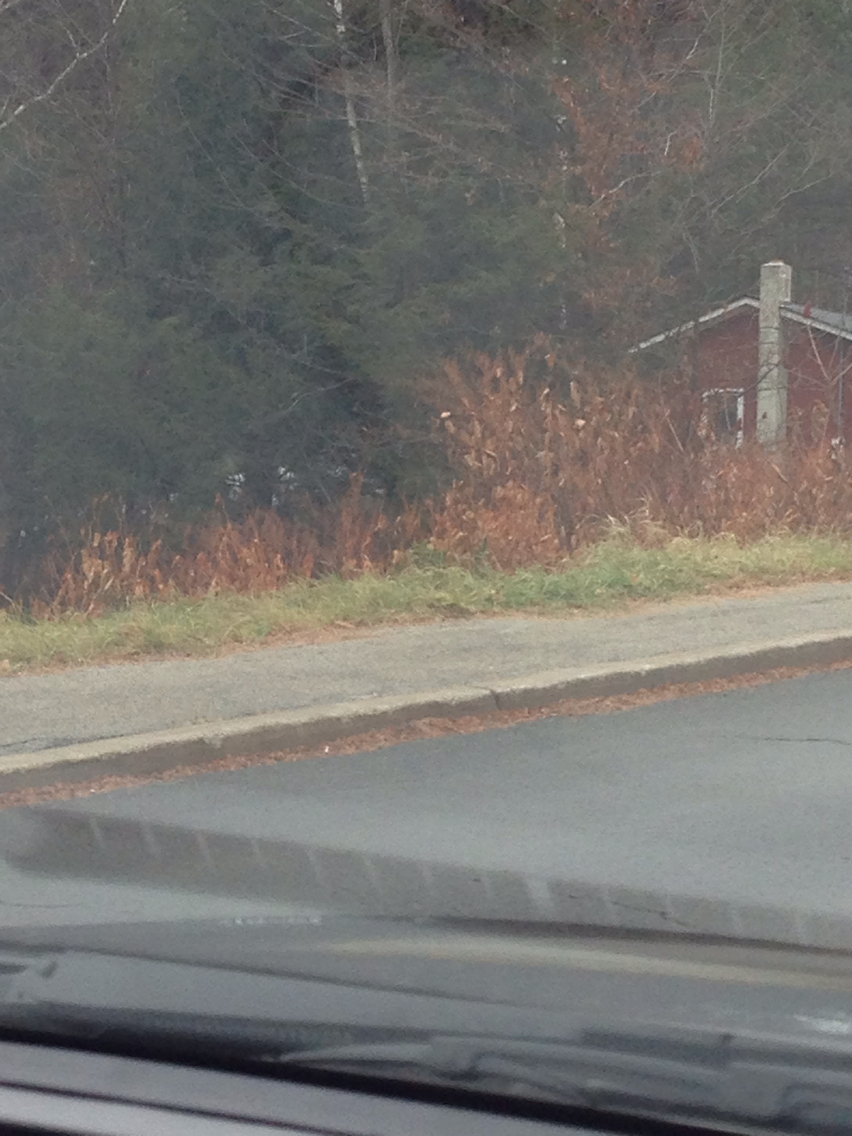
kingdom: Plantae
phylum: Tracheophyta
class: Magnoliopsida
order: Caryophyllales
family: Polygonaceae
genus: Reynoutria
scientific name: Reynoutria japonica
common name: Japanese knotweed
